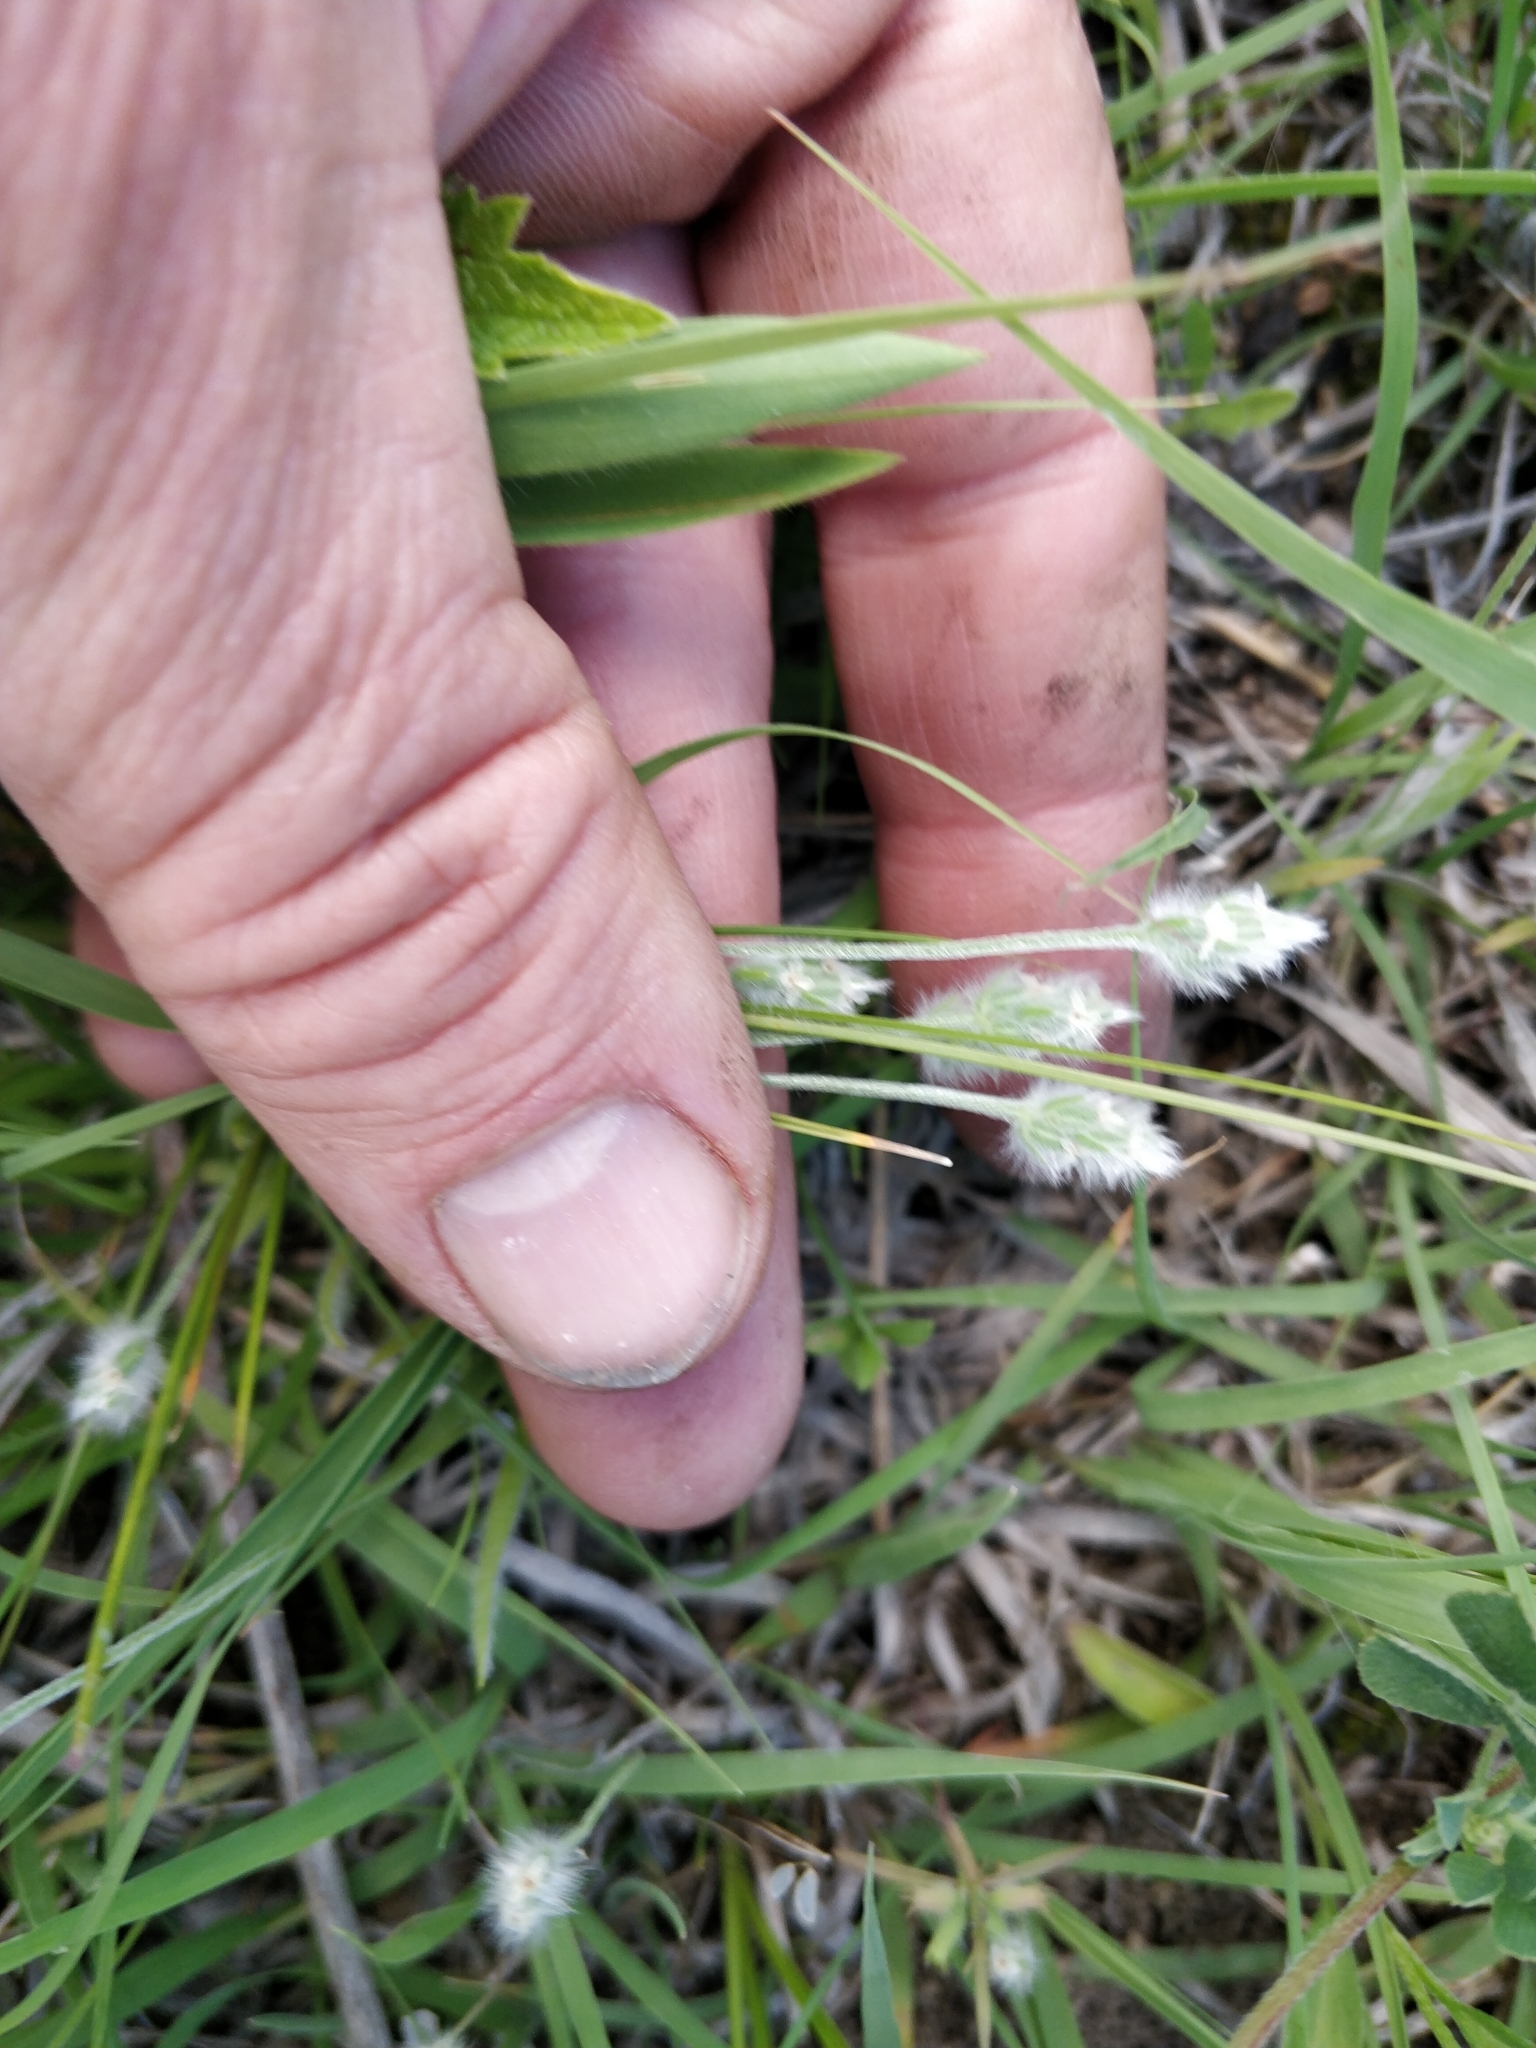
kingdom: Plantae
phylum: Tracheophyta
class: Magnoliopsida
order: Lamiales
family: Plantaginaceae
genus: Plantago
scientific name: Plantago patagonica
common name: Patagonia indian-wheat
